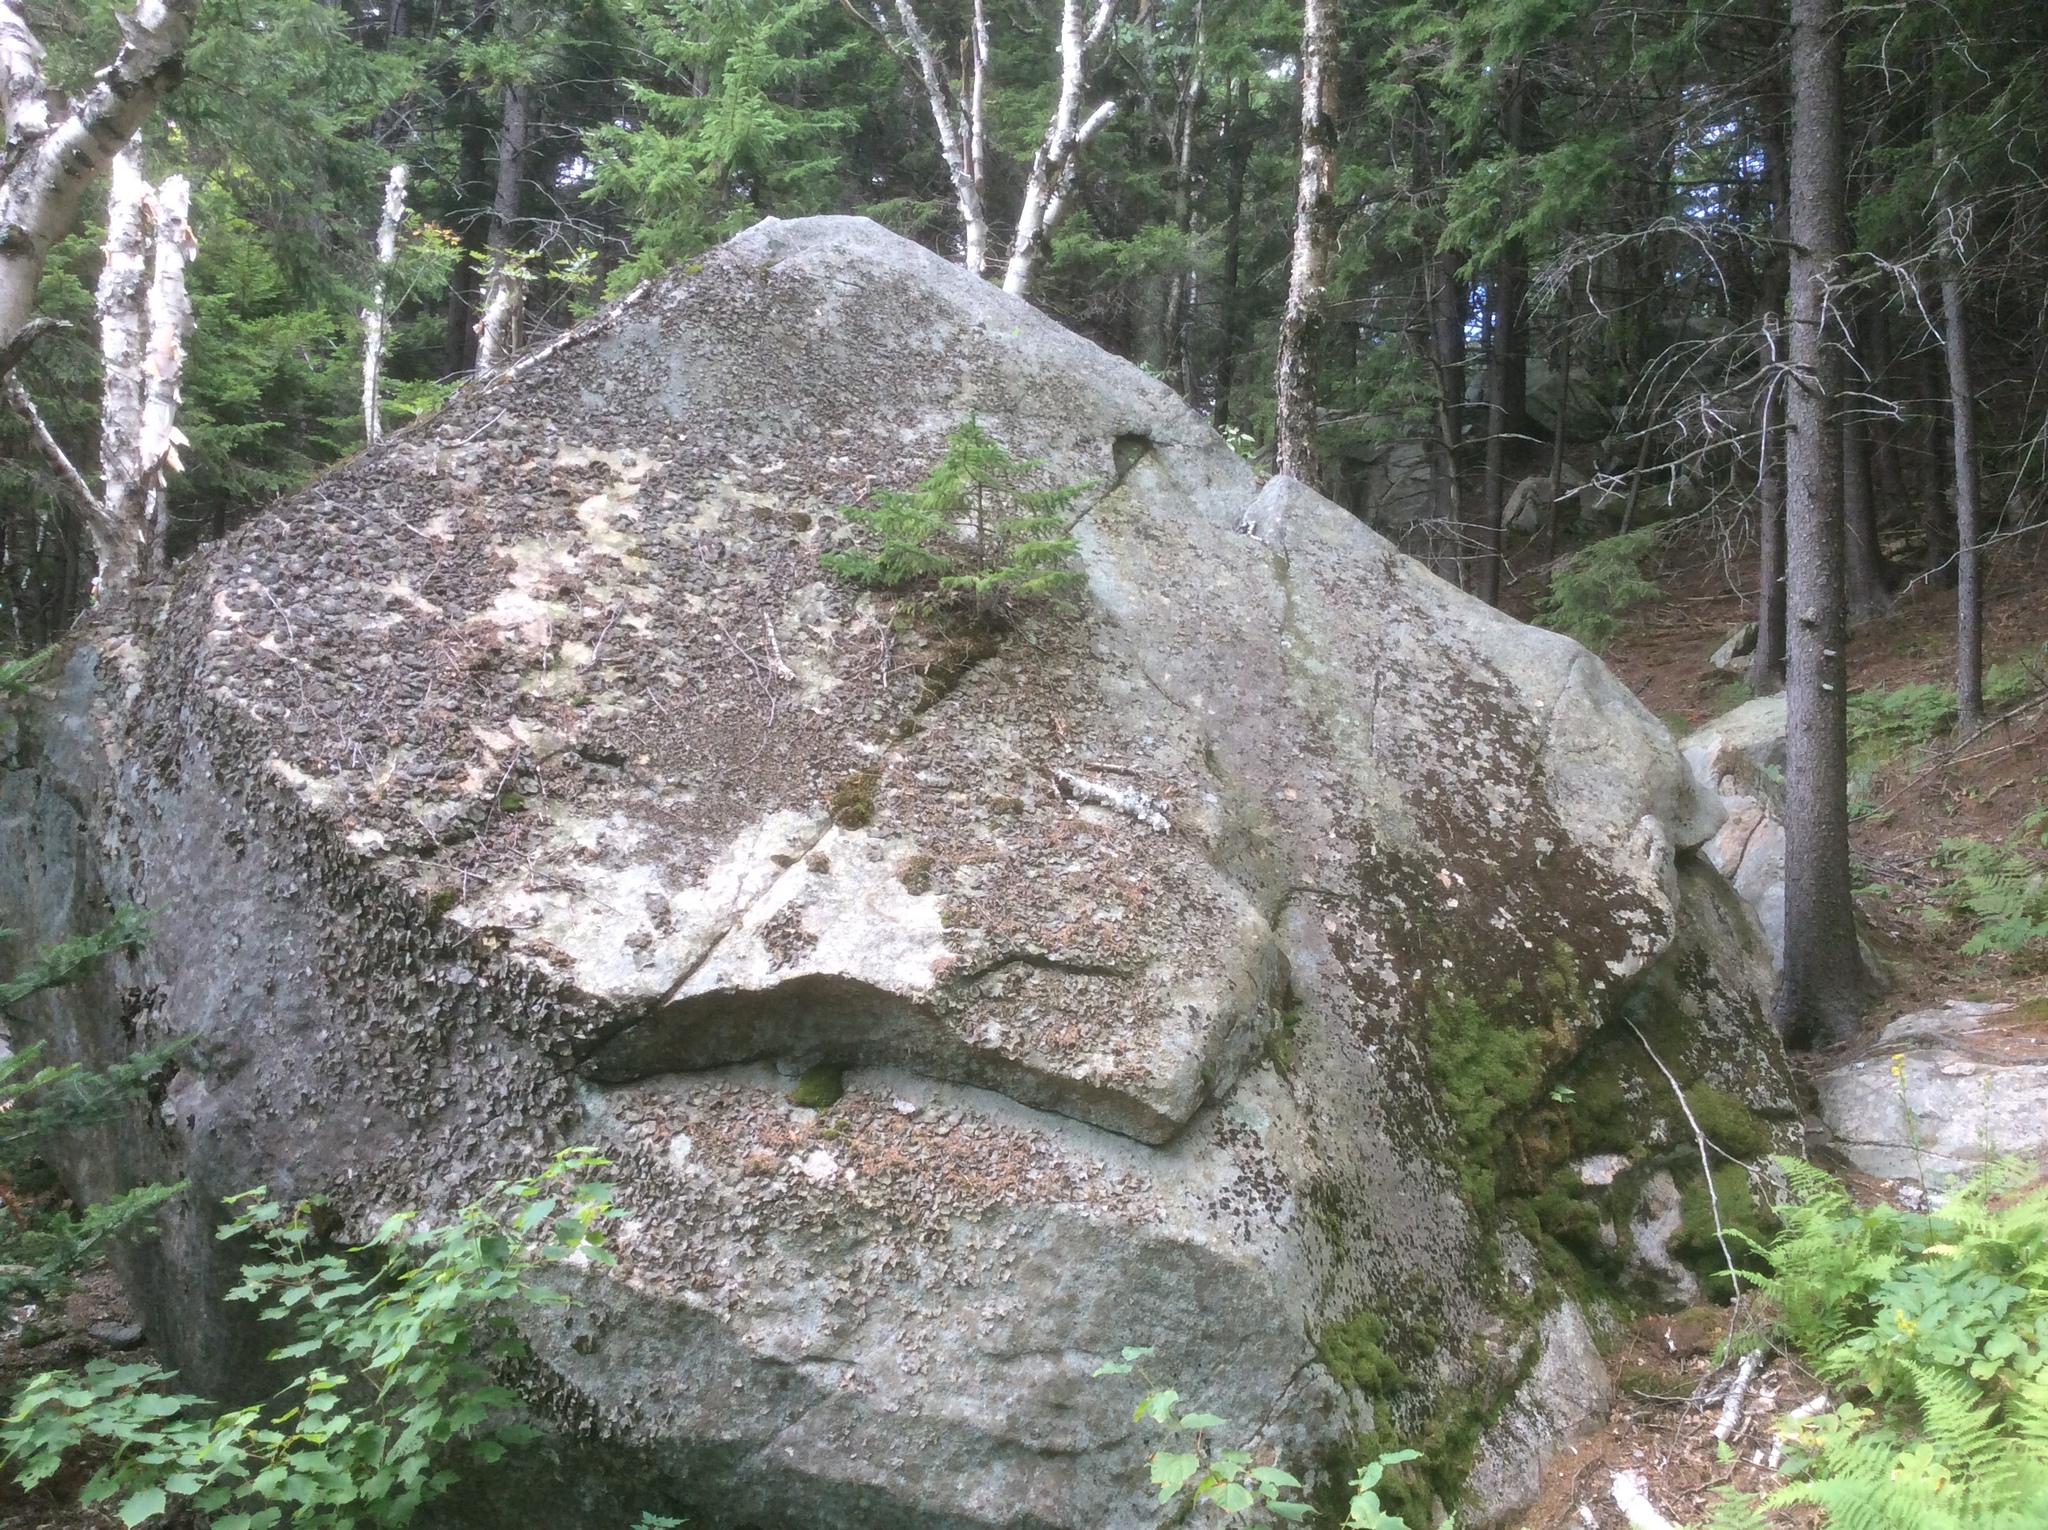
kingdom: Plantae
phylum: Tracheophyta
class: Pinopsida
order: Pinales
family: Pinaceae
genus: Picea
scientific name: Picea rubens
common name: Red spruce
